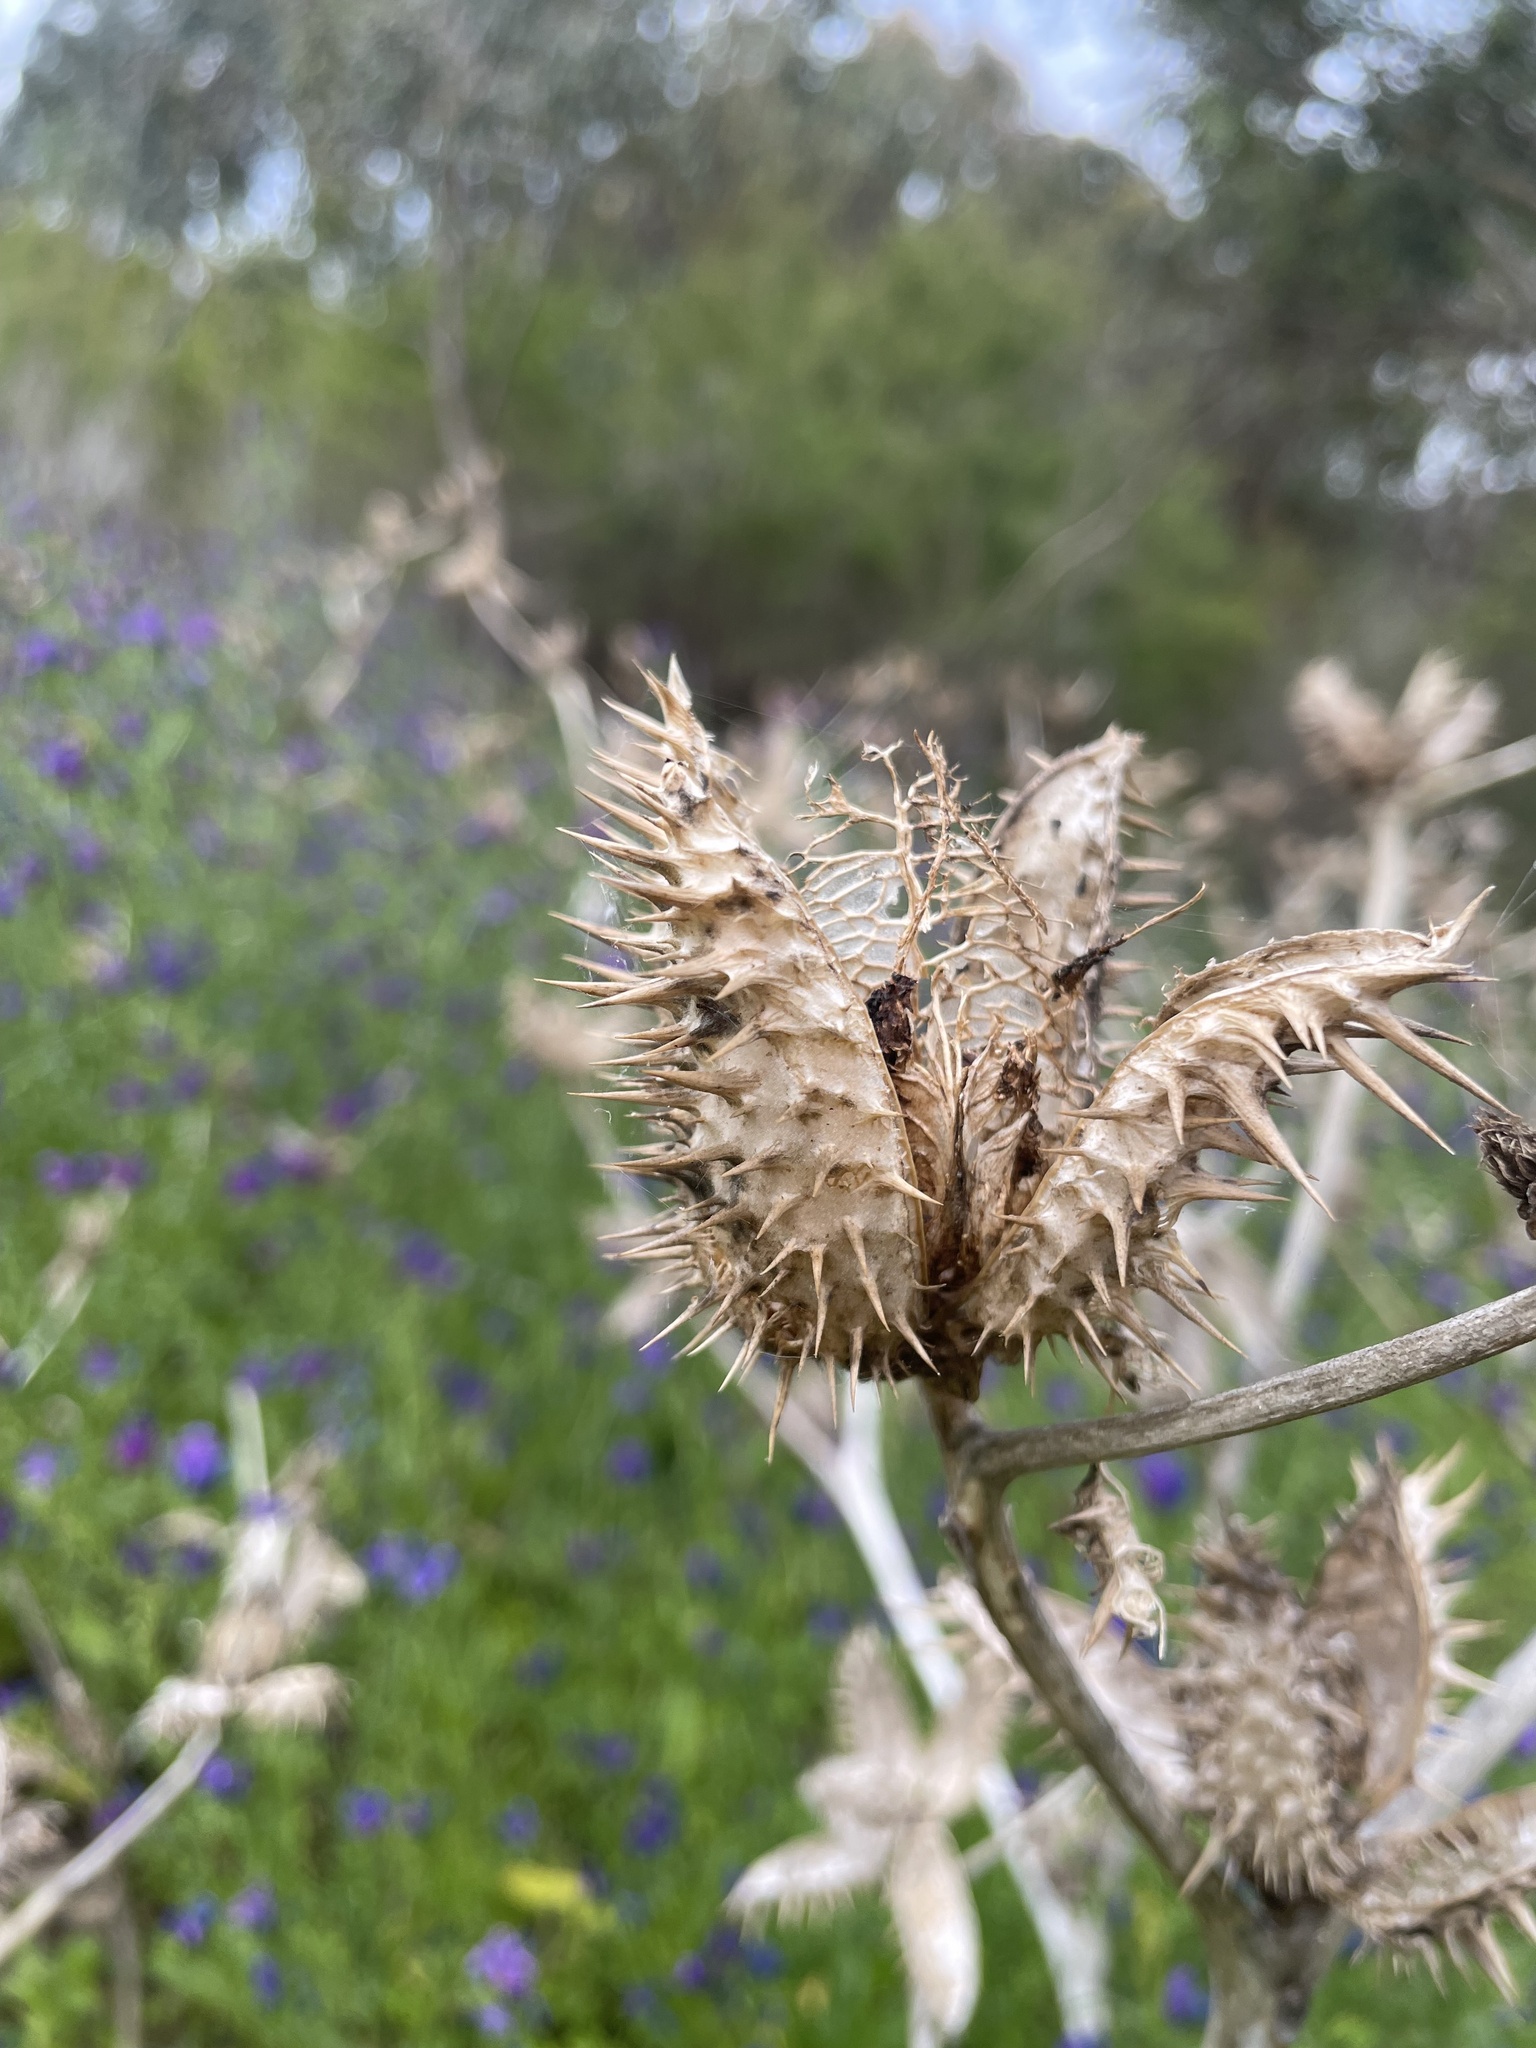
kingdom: Plantae
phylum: Tracheophyta
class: Magnoliopsida
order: Solanales
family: Solanaceae
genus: Datura
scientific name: Datura stramonium
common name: Thorn-apple
